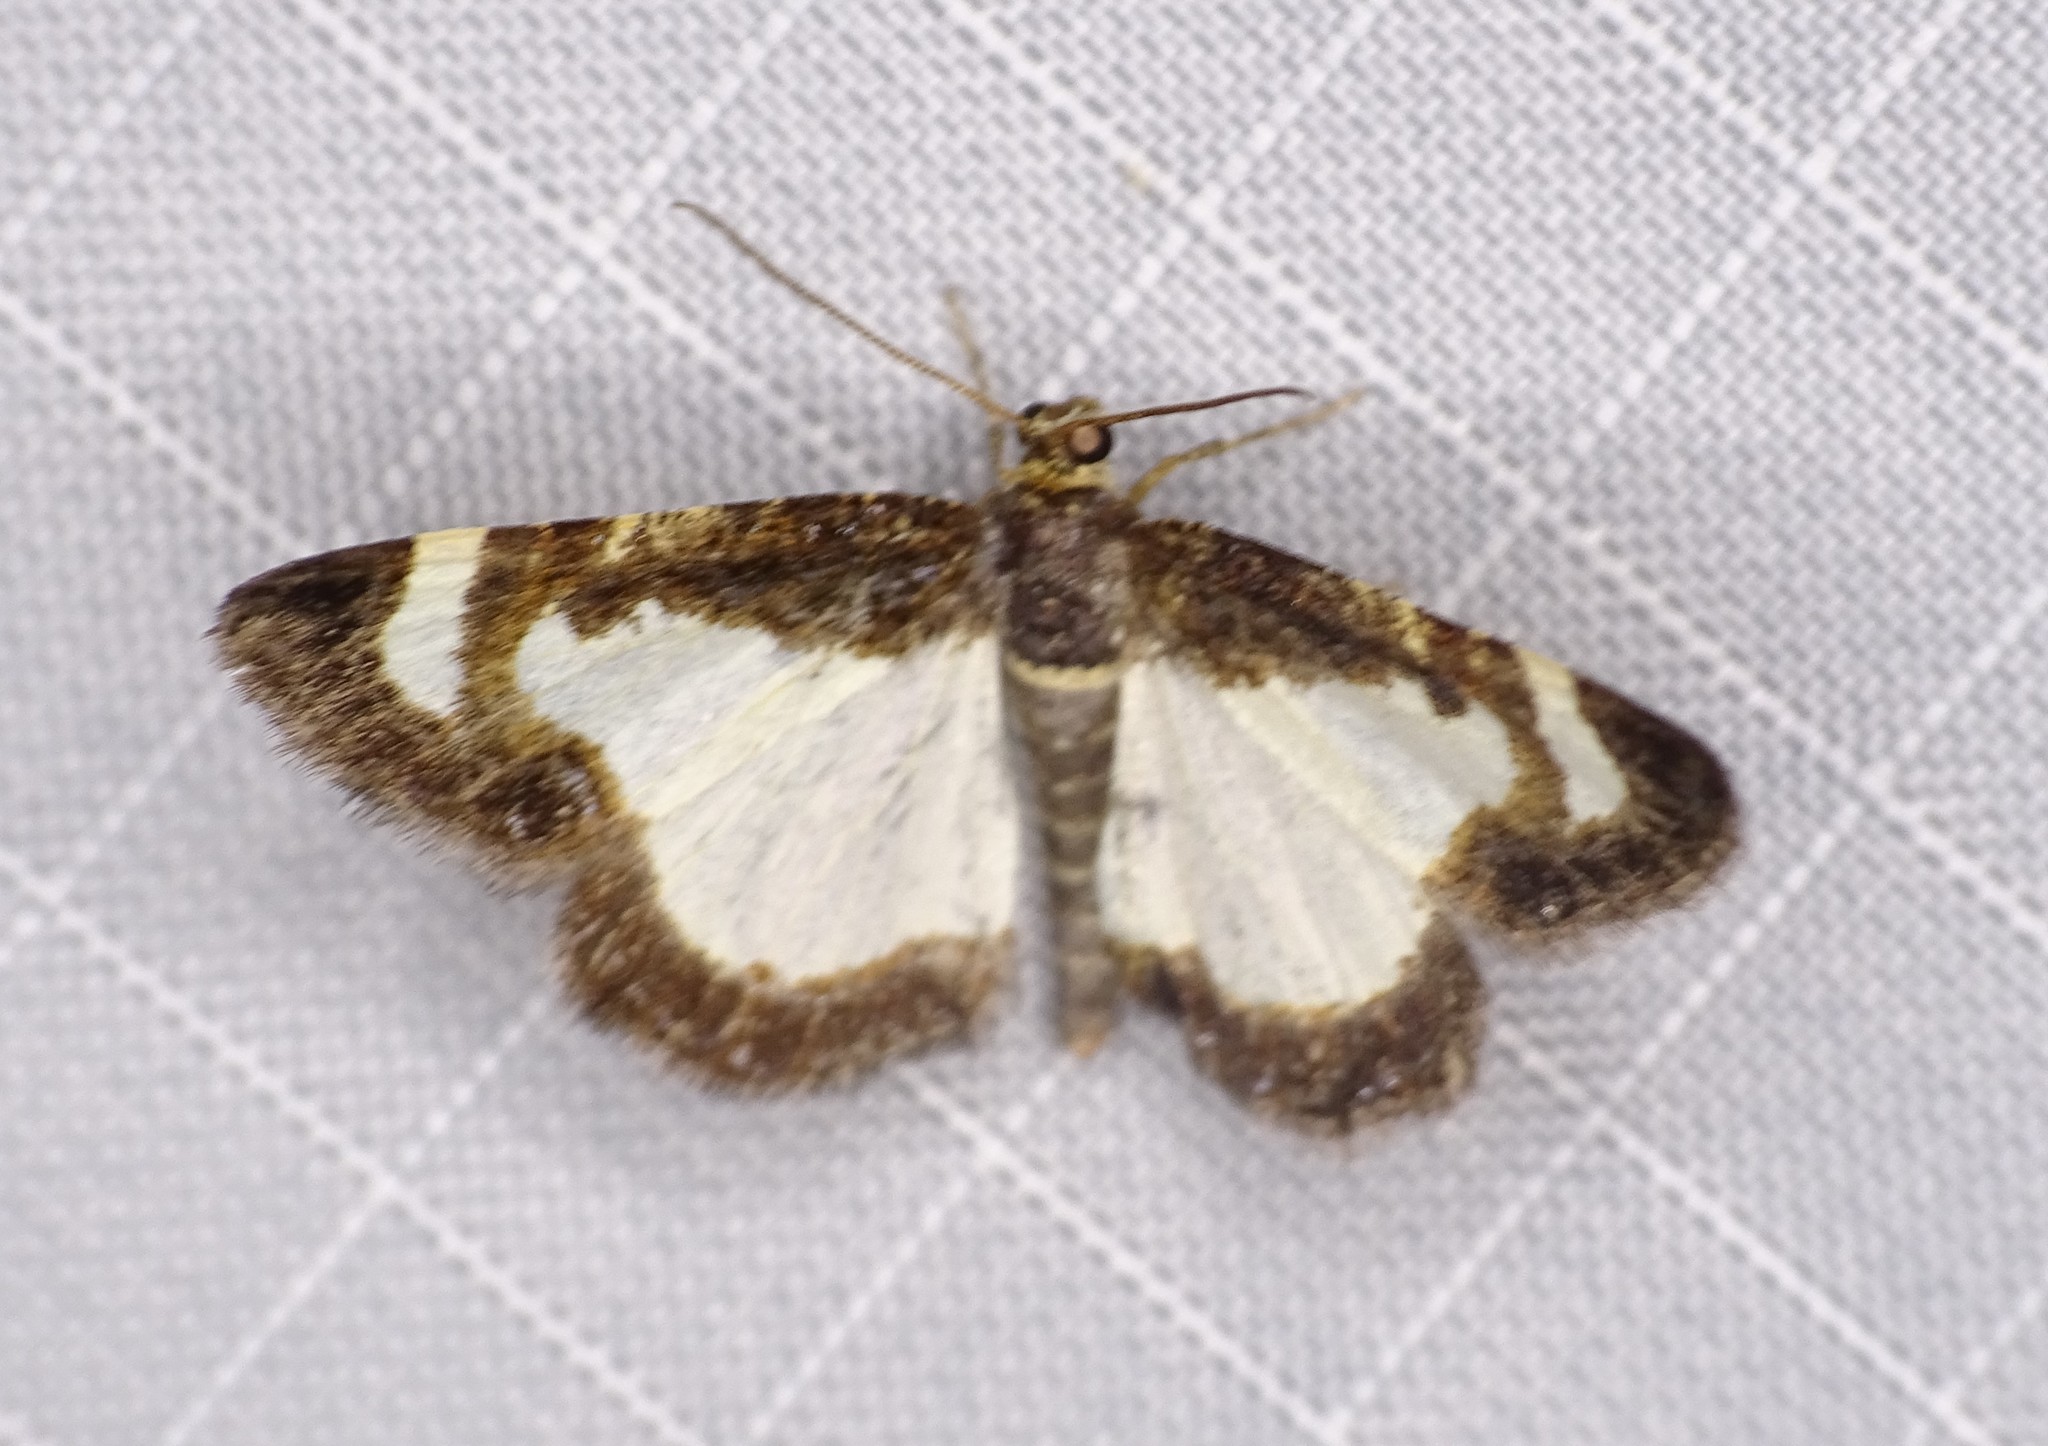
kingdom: Animalia
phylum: Arthropoda
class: Insecta
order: Lepidoptera
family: Geometridae
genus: Heliomata
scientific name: Heliomata cycladata
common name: Common spring moth
